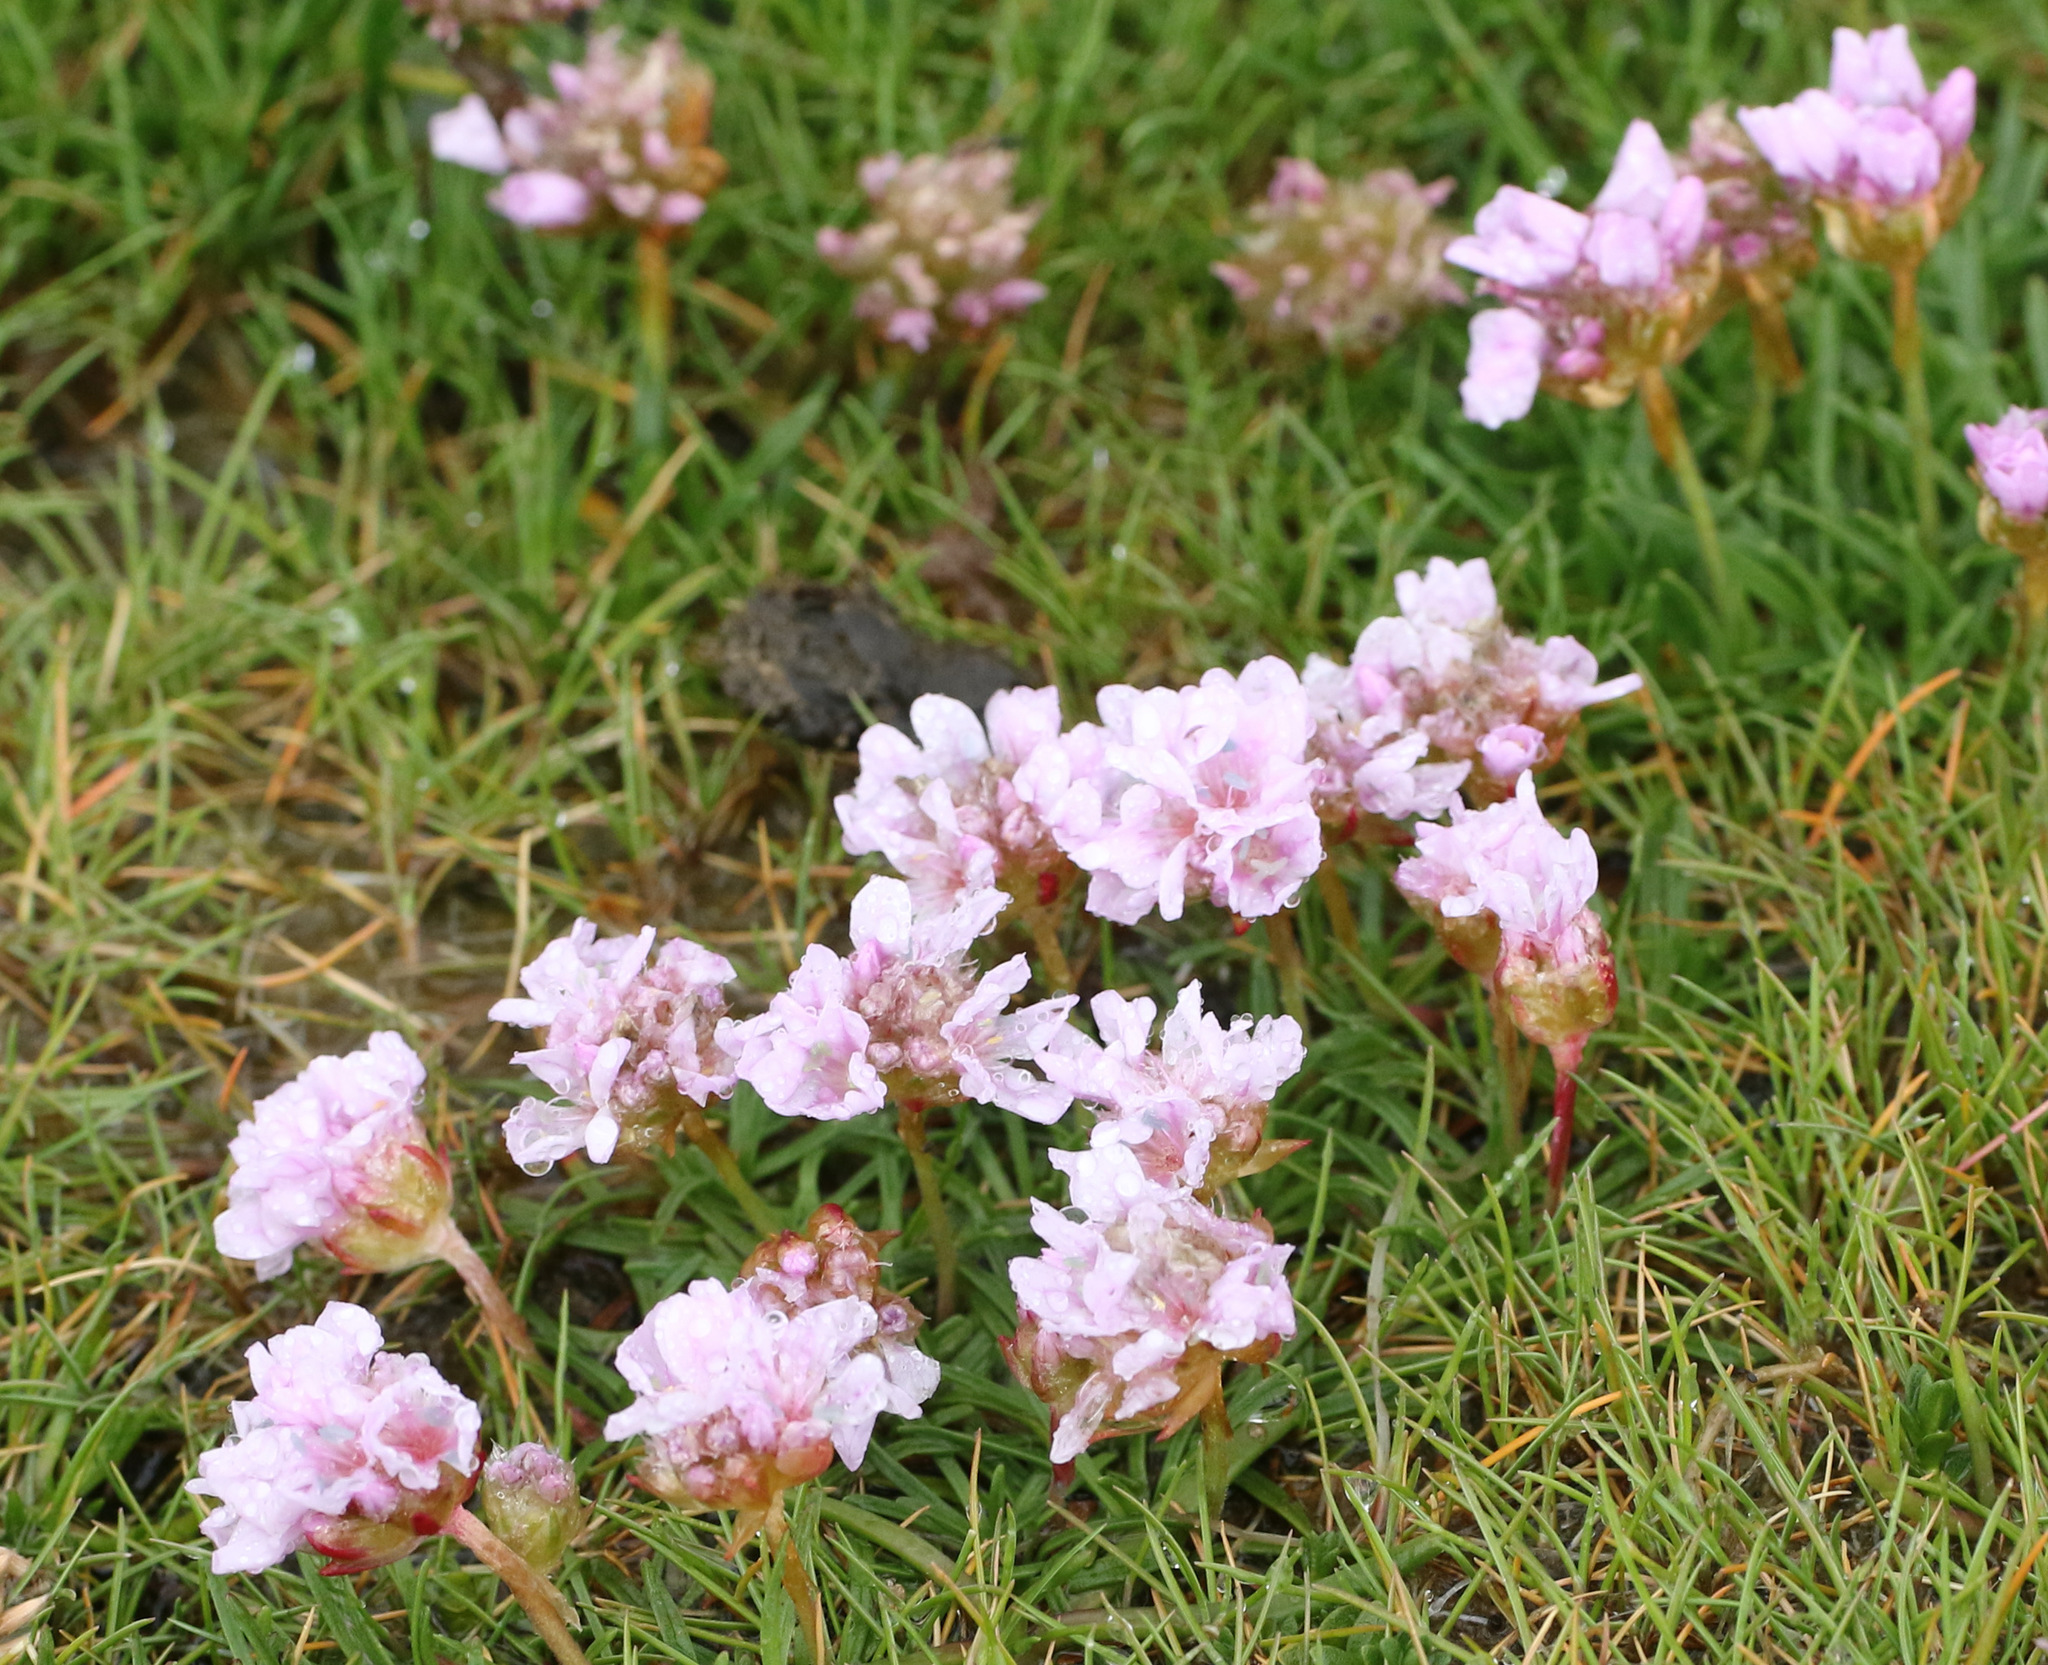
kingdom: Plantae
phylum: Tracheophyta
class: Magnoliopsida
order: Caryophyllales
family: Plumbaginaceae
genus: Armeria
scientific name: Armeria maritima
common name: Thrift
